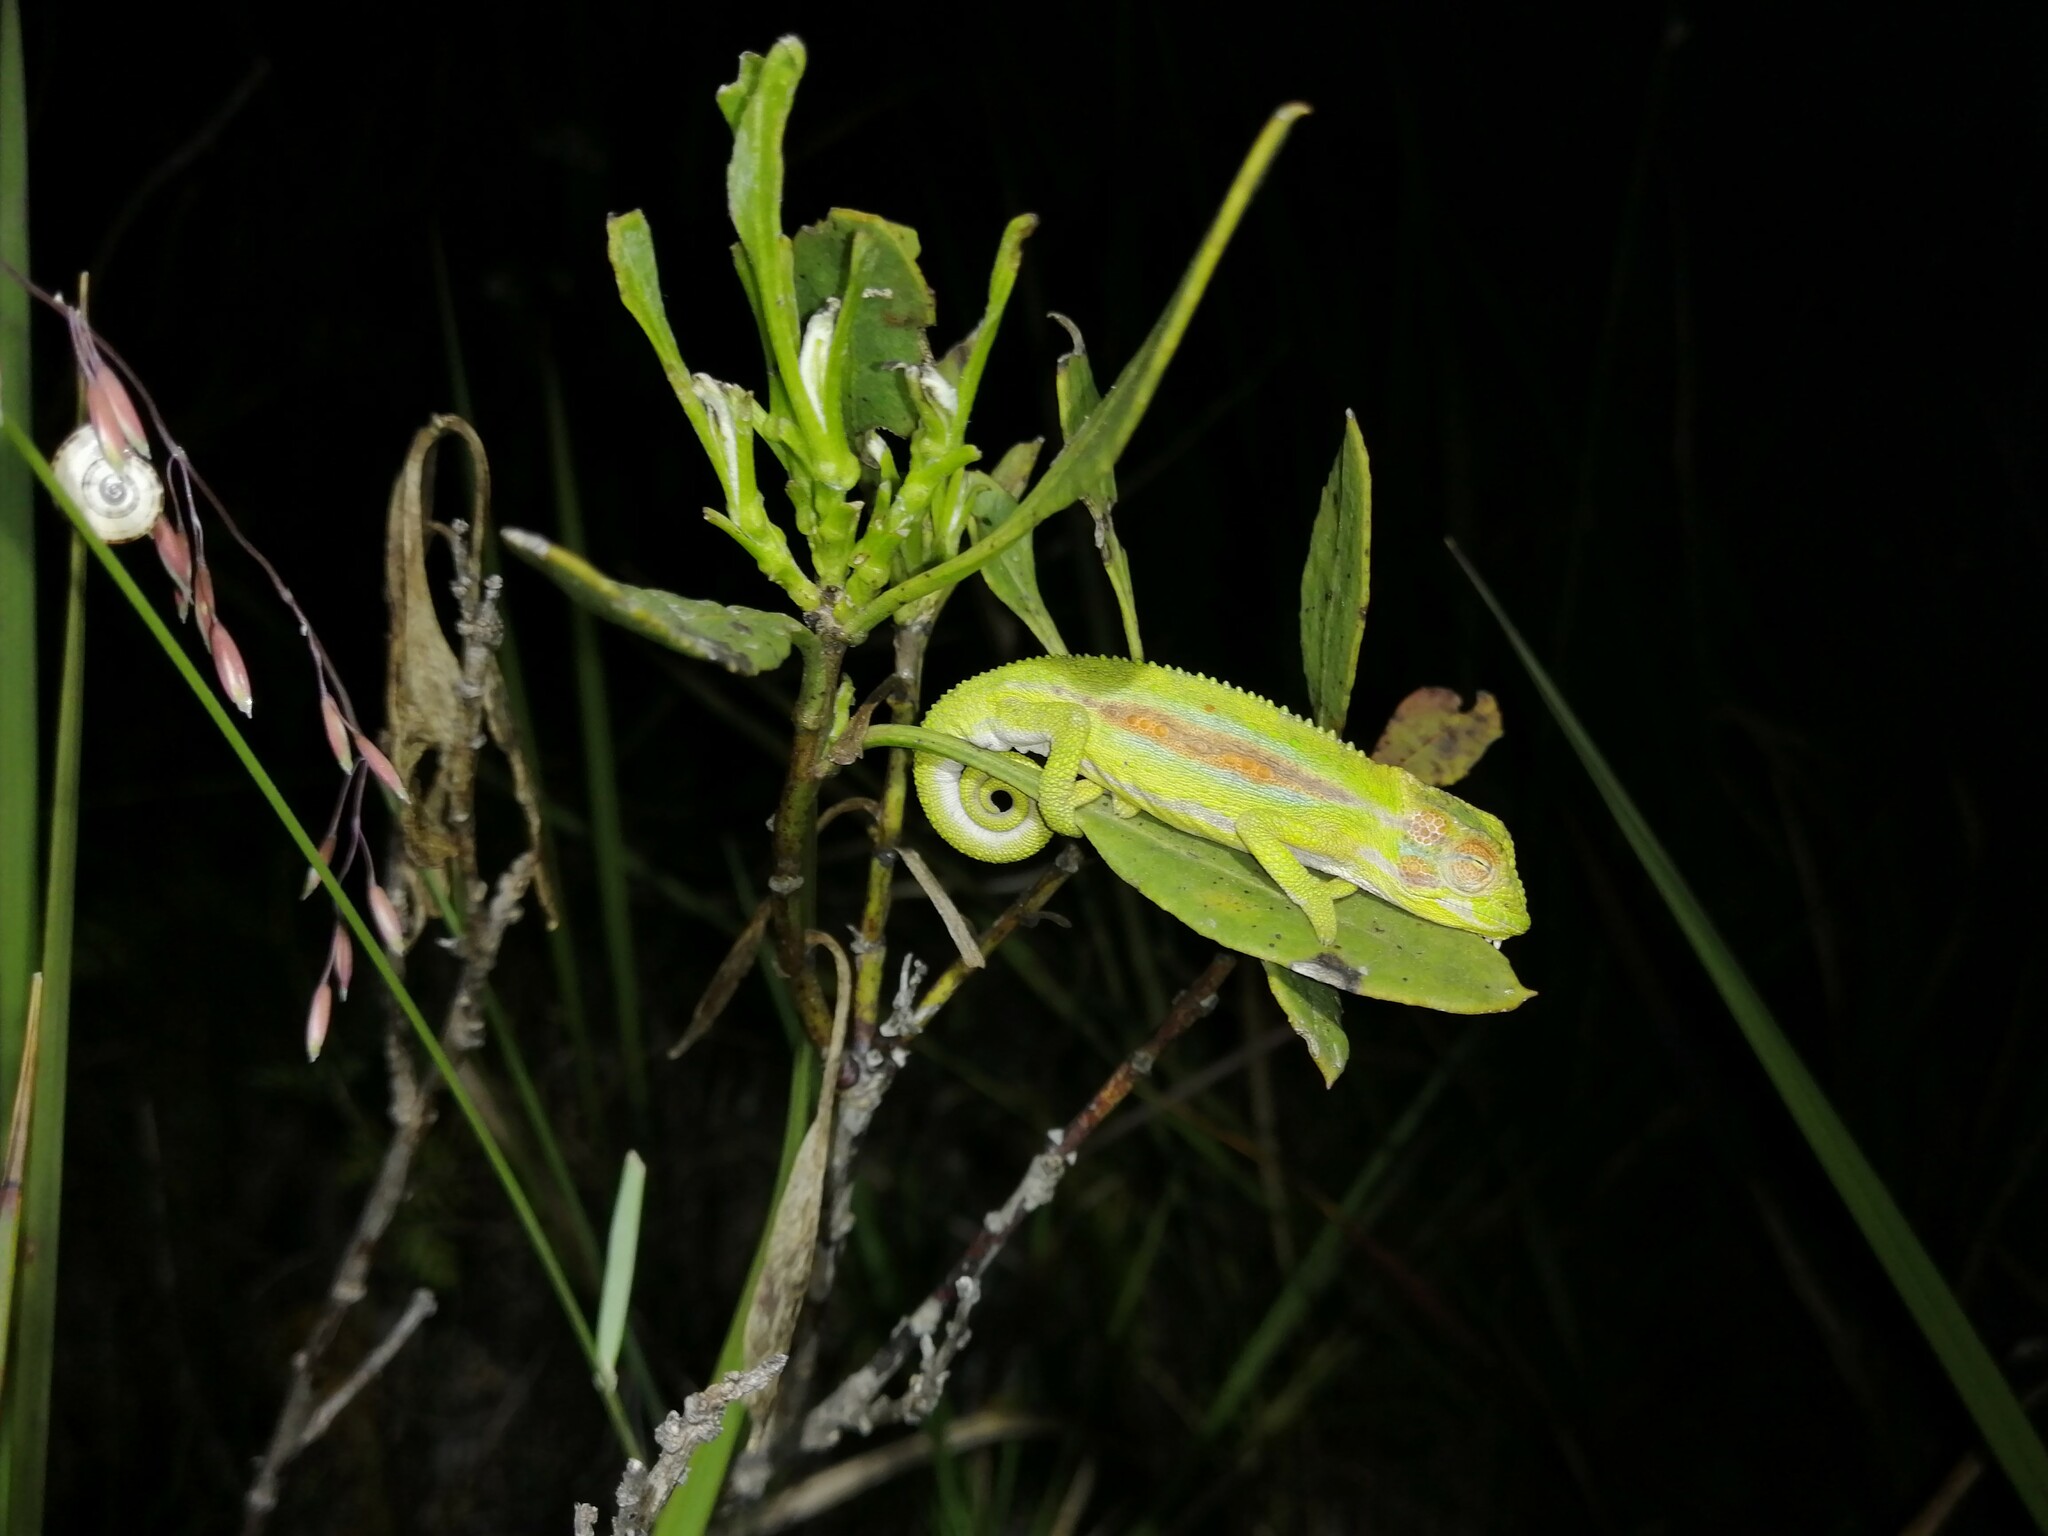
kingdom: Animalia
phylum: Chordata
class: Squamata
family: Chamaeleonidae
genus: Bradypodion
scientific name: Bradypodion pumilum
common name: Cape dwarf chameleon
